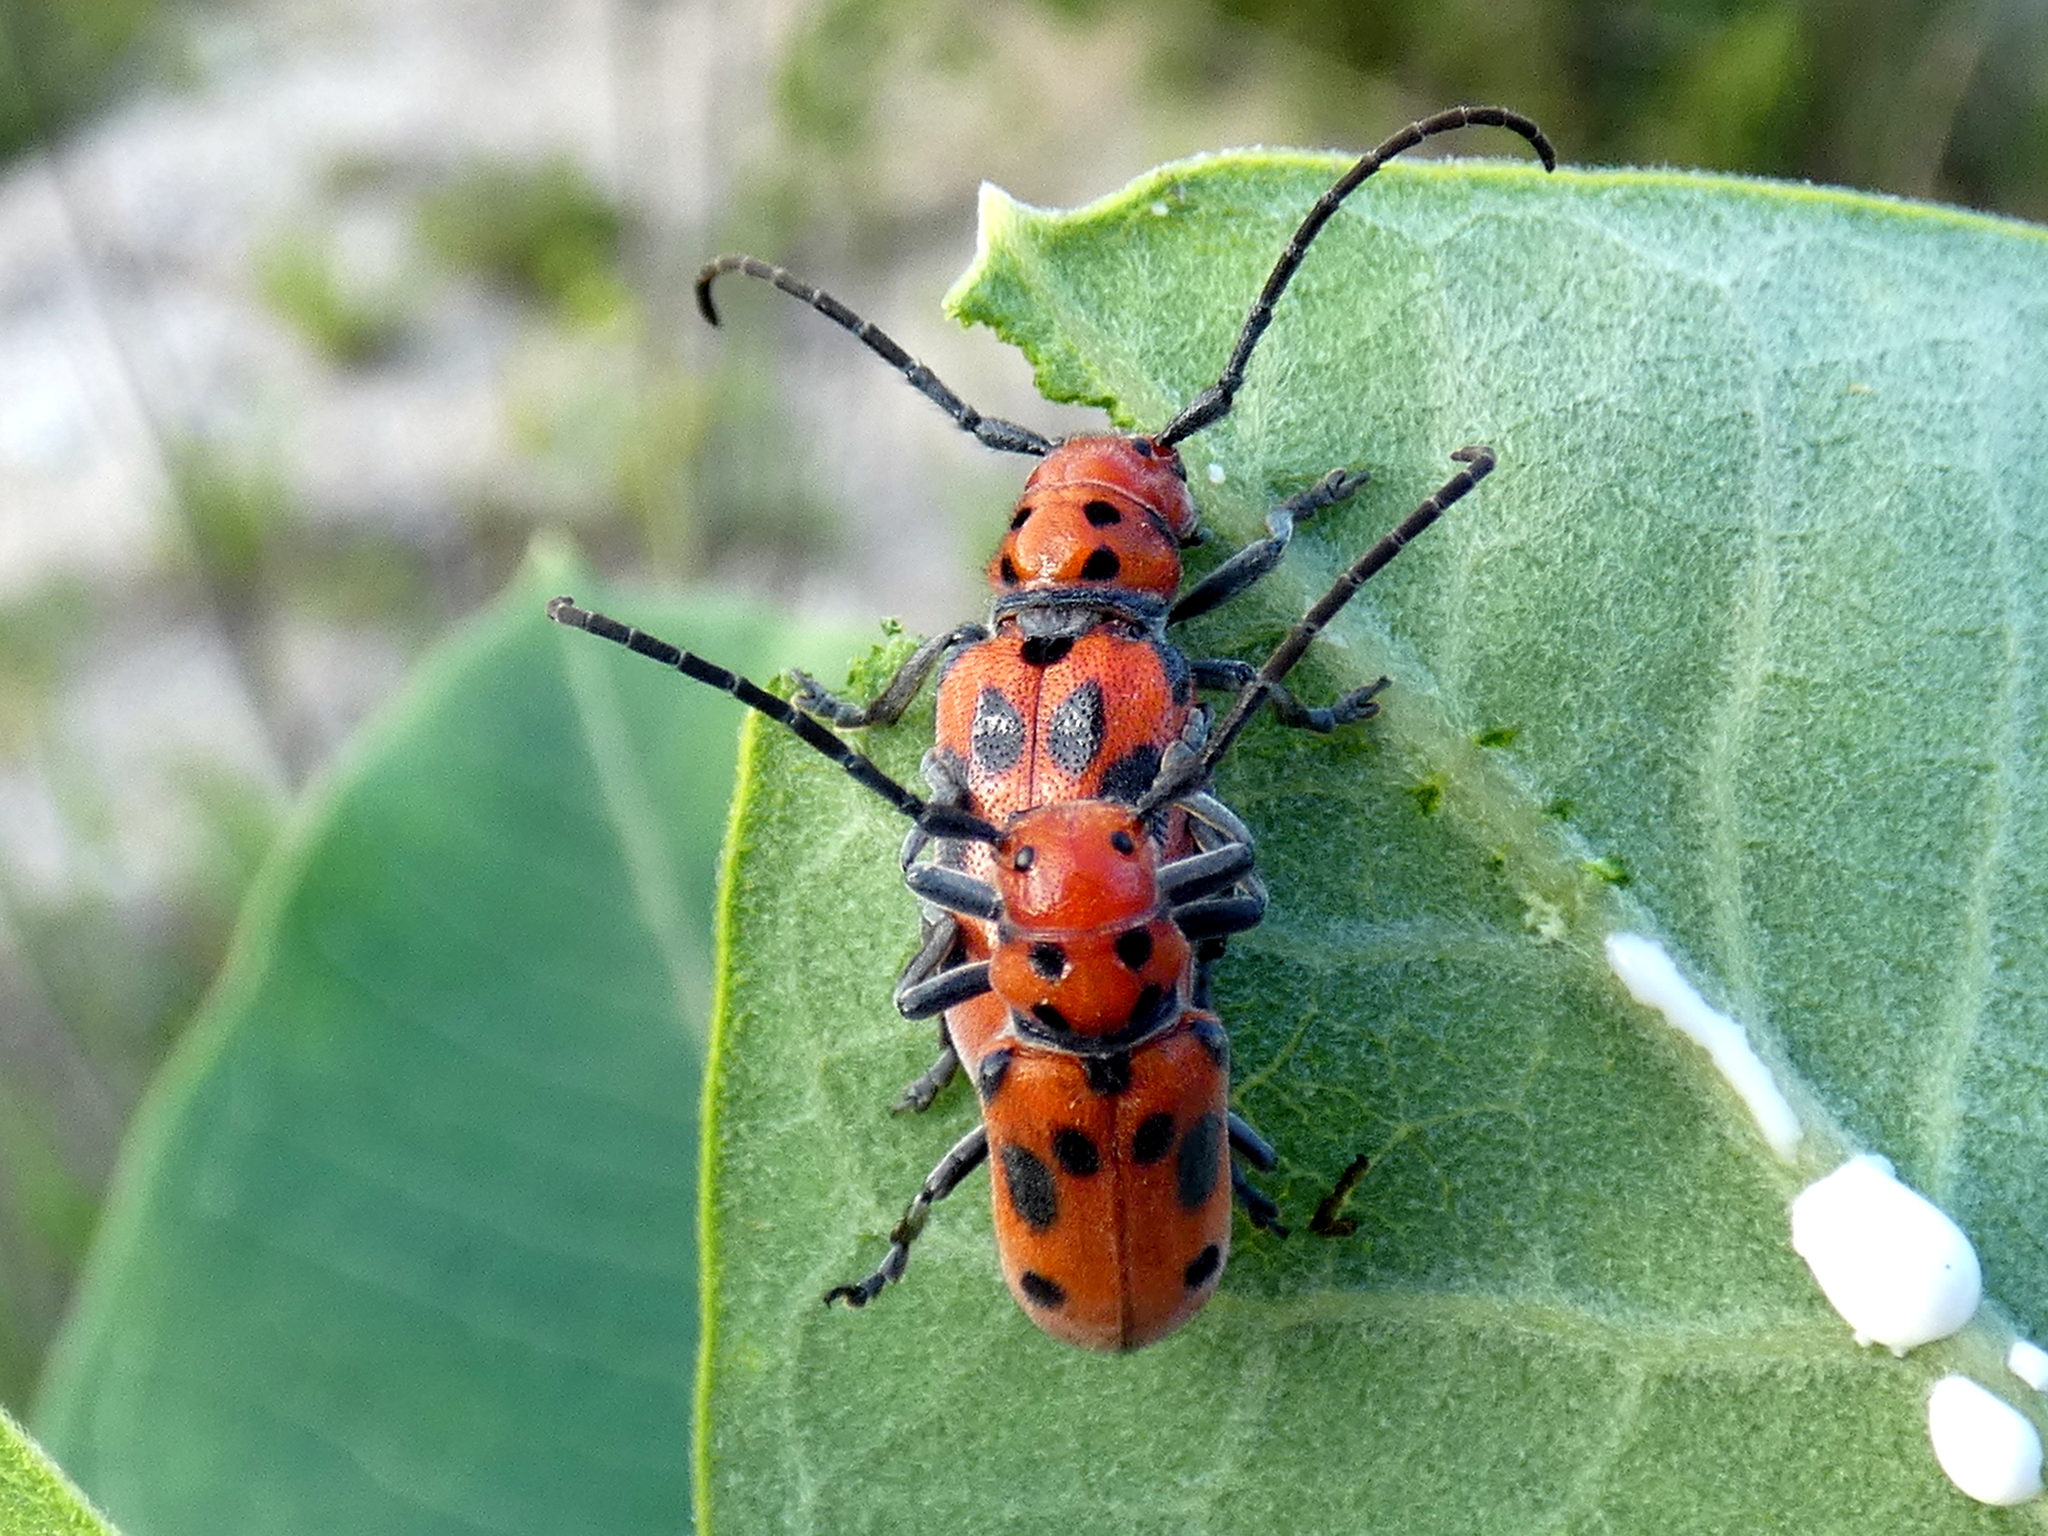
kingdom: Animalia
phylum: Arthropoda
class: Insecta
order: Coleoptera
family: Cerambycidae
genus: Tetraopes
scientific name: Tetraopes tetrophthalmus
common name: Red milkweed beetle
